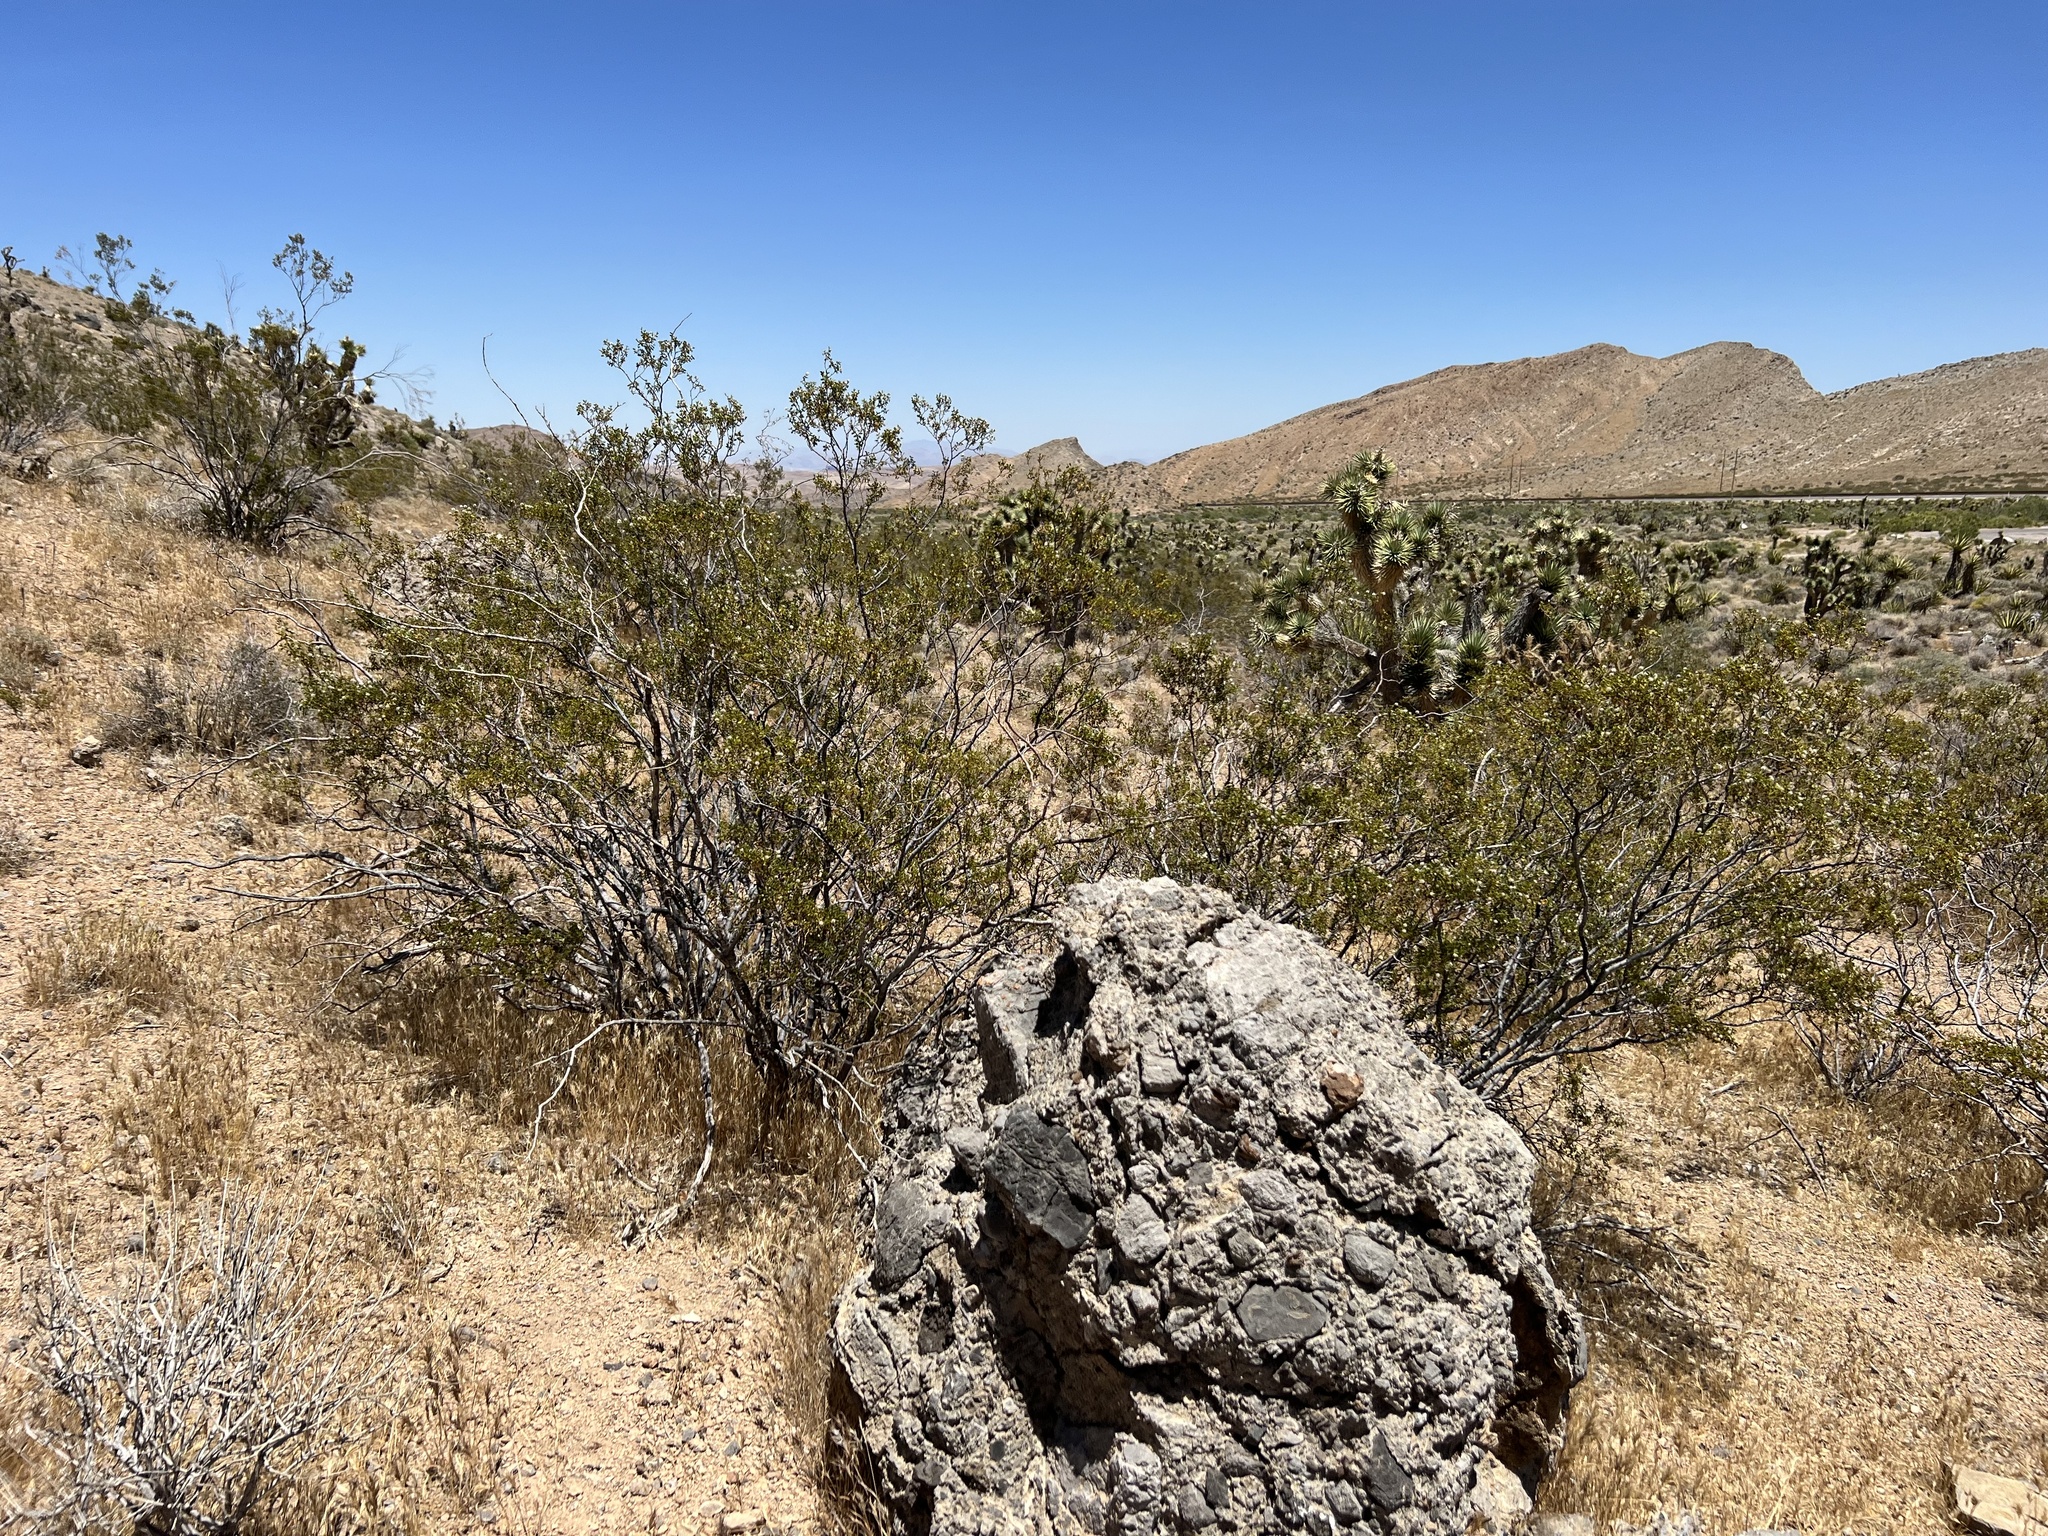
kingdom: Plantae
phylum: Tracheophyta
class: Magnoliopsida
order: Zygophyllales
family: Zygophyllaceae
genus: Larrea
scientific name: Larrea tridentata
